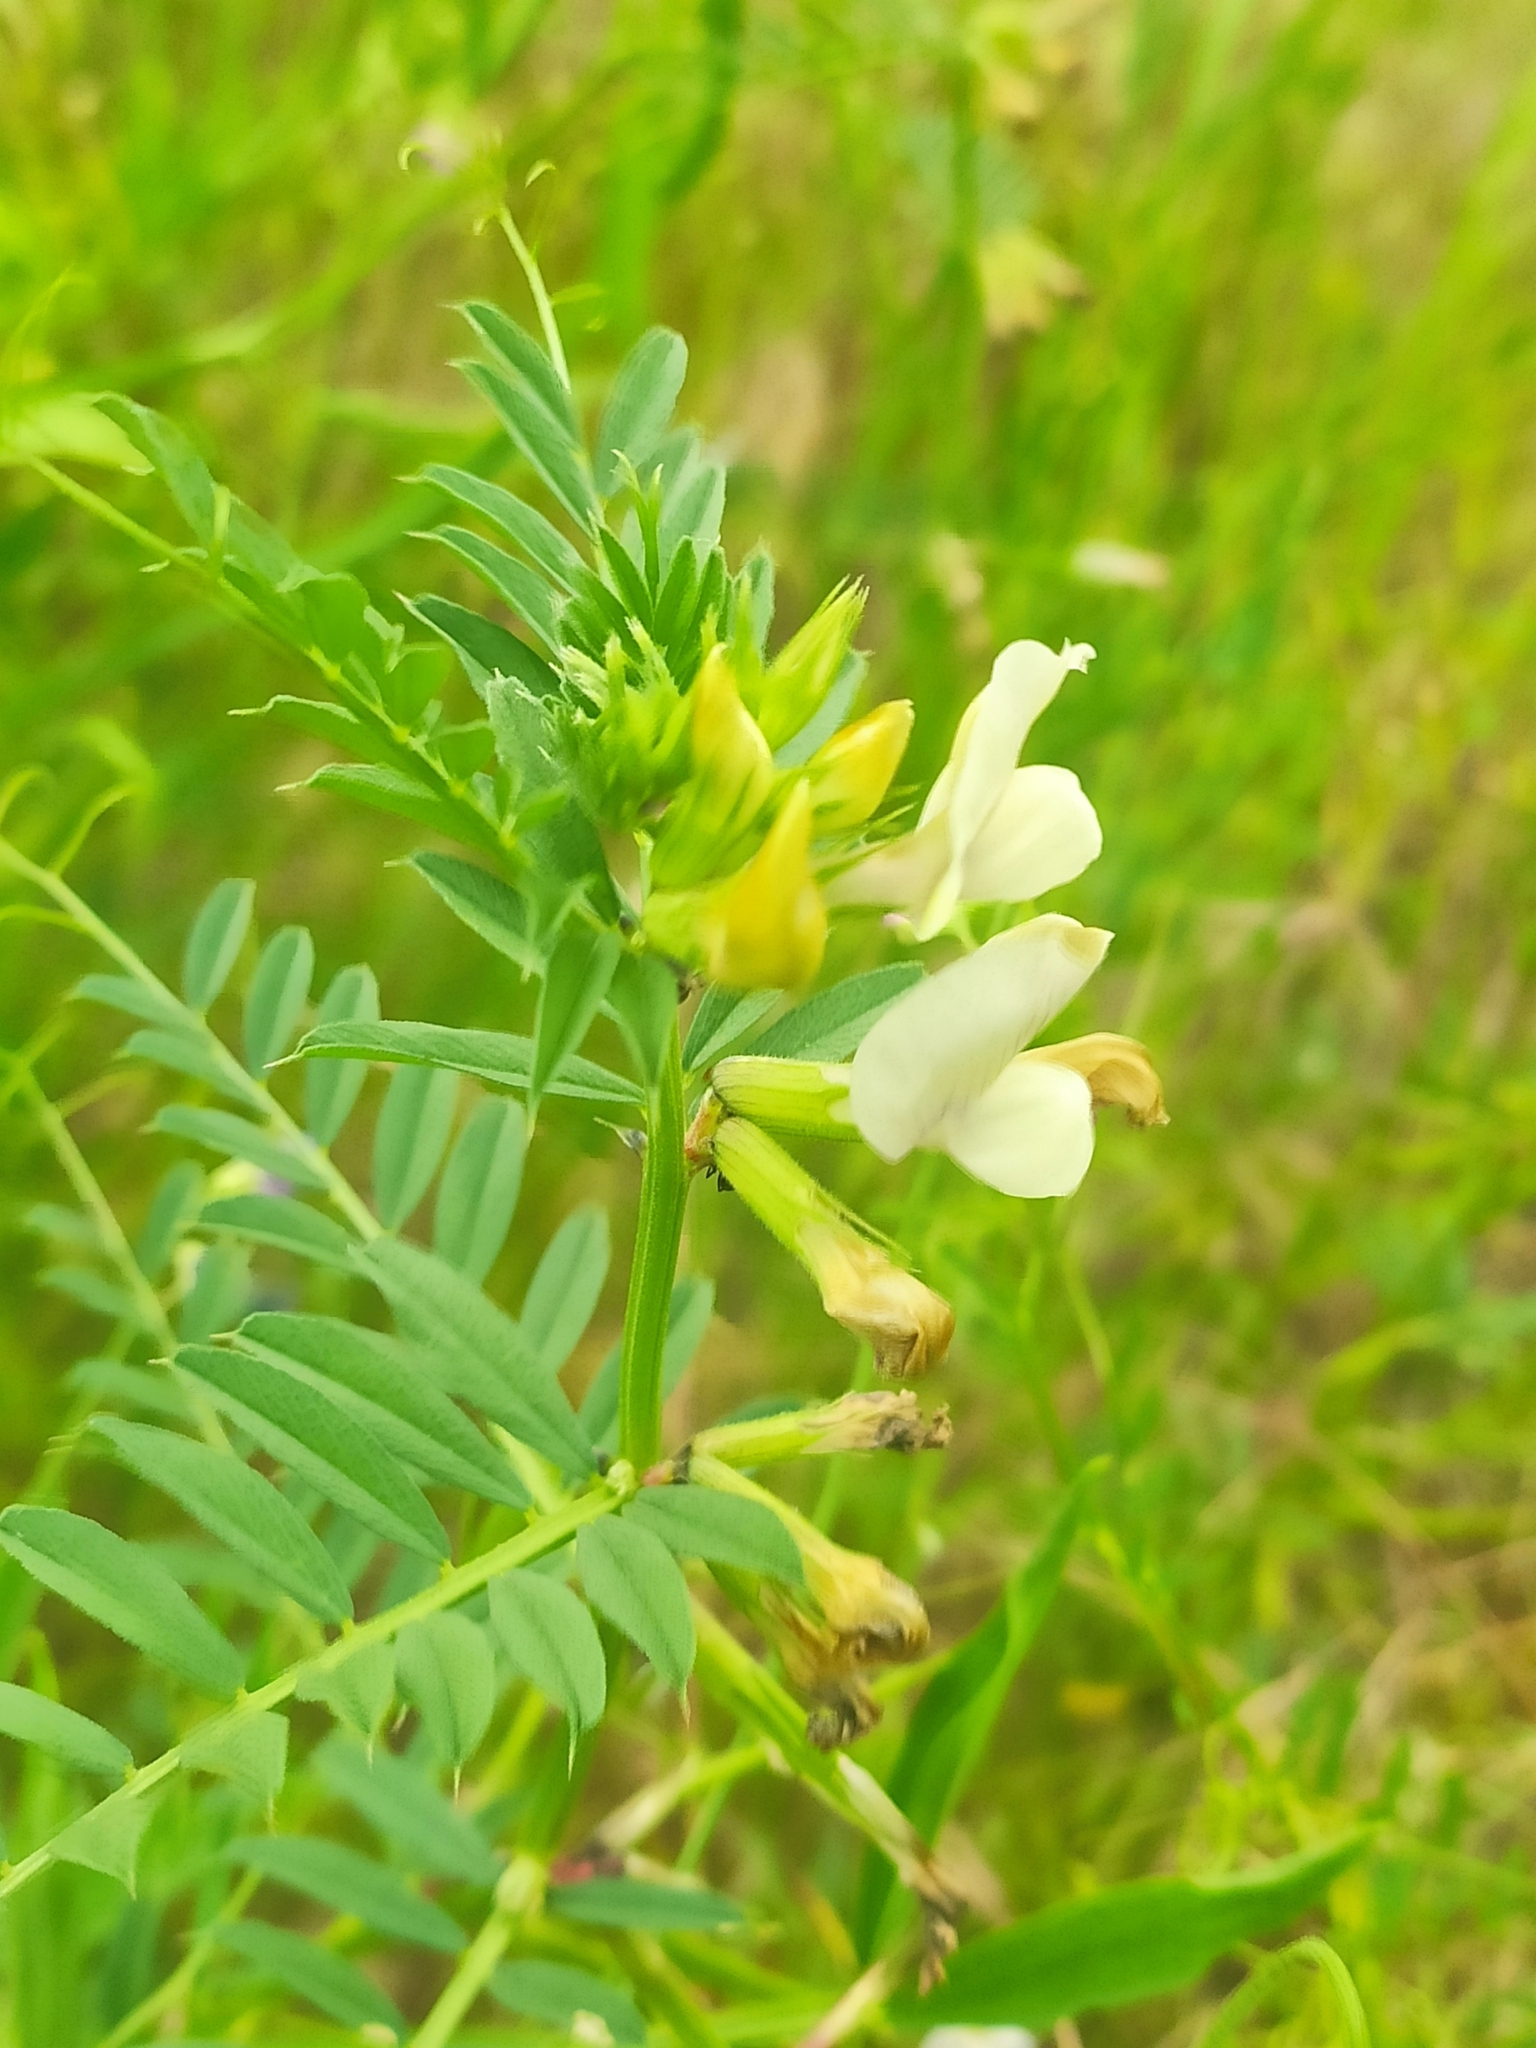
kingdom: Plantae
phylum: Tracheophyta
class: Magnoliopsida
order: Fabales
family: Fabaceae
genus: Vicia
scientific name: Vicia grandiflora
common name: Large yellow vetch
